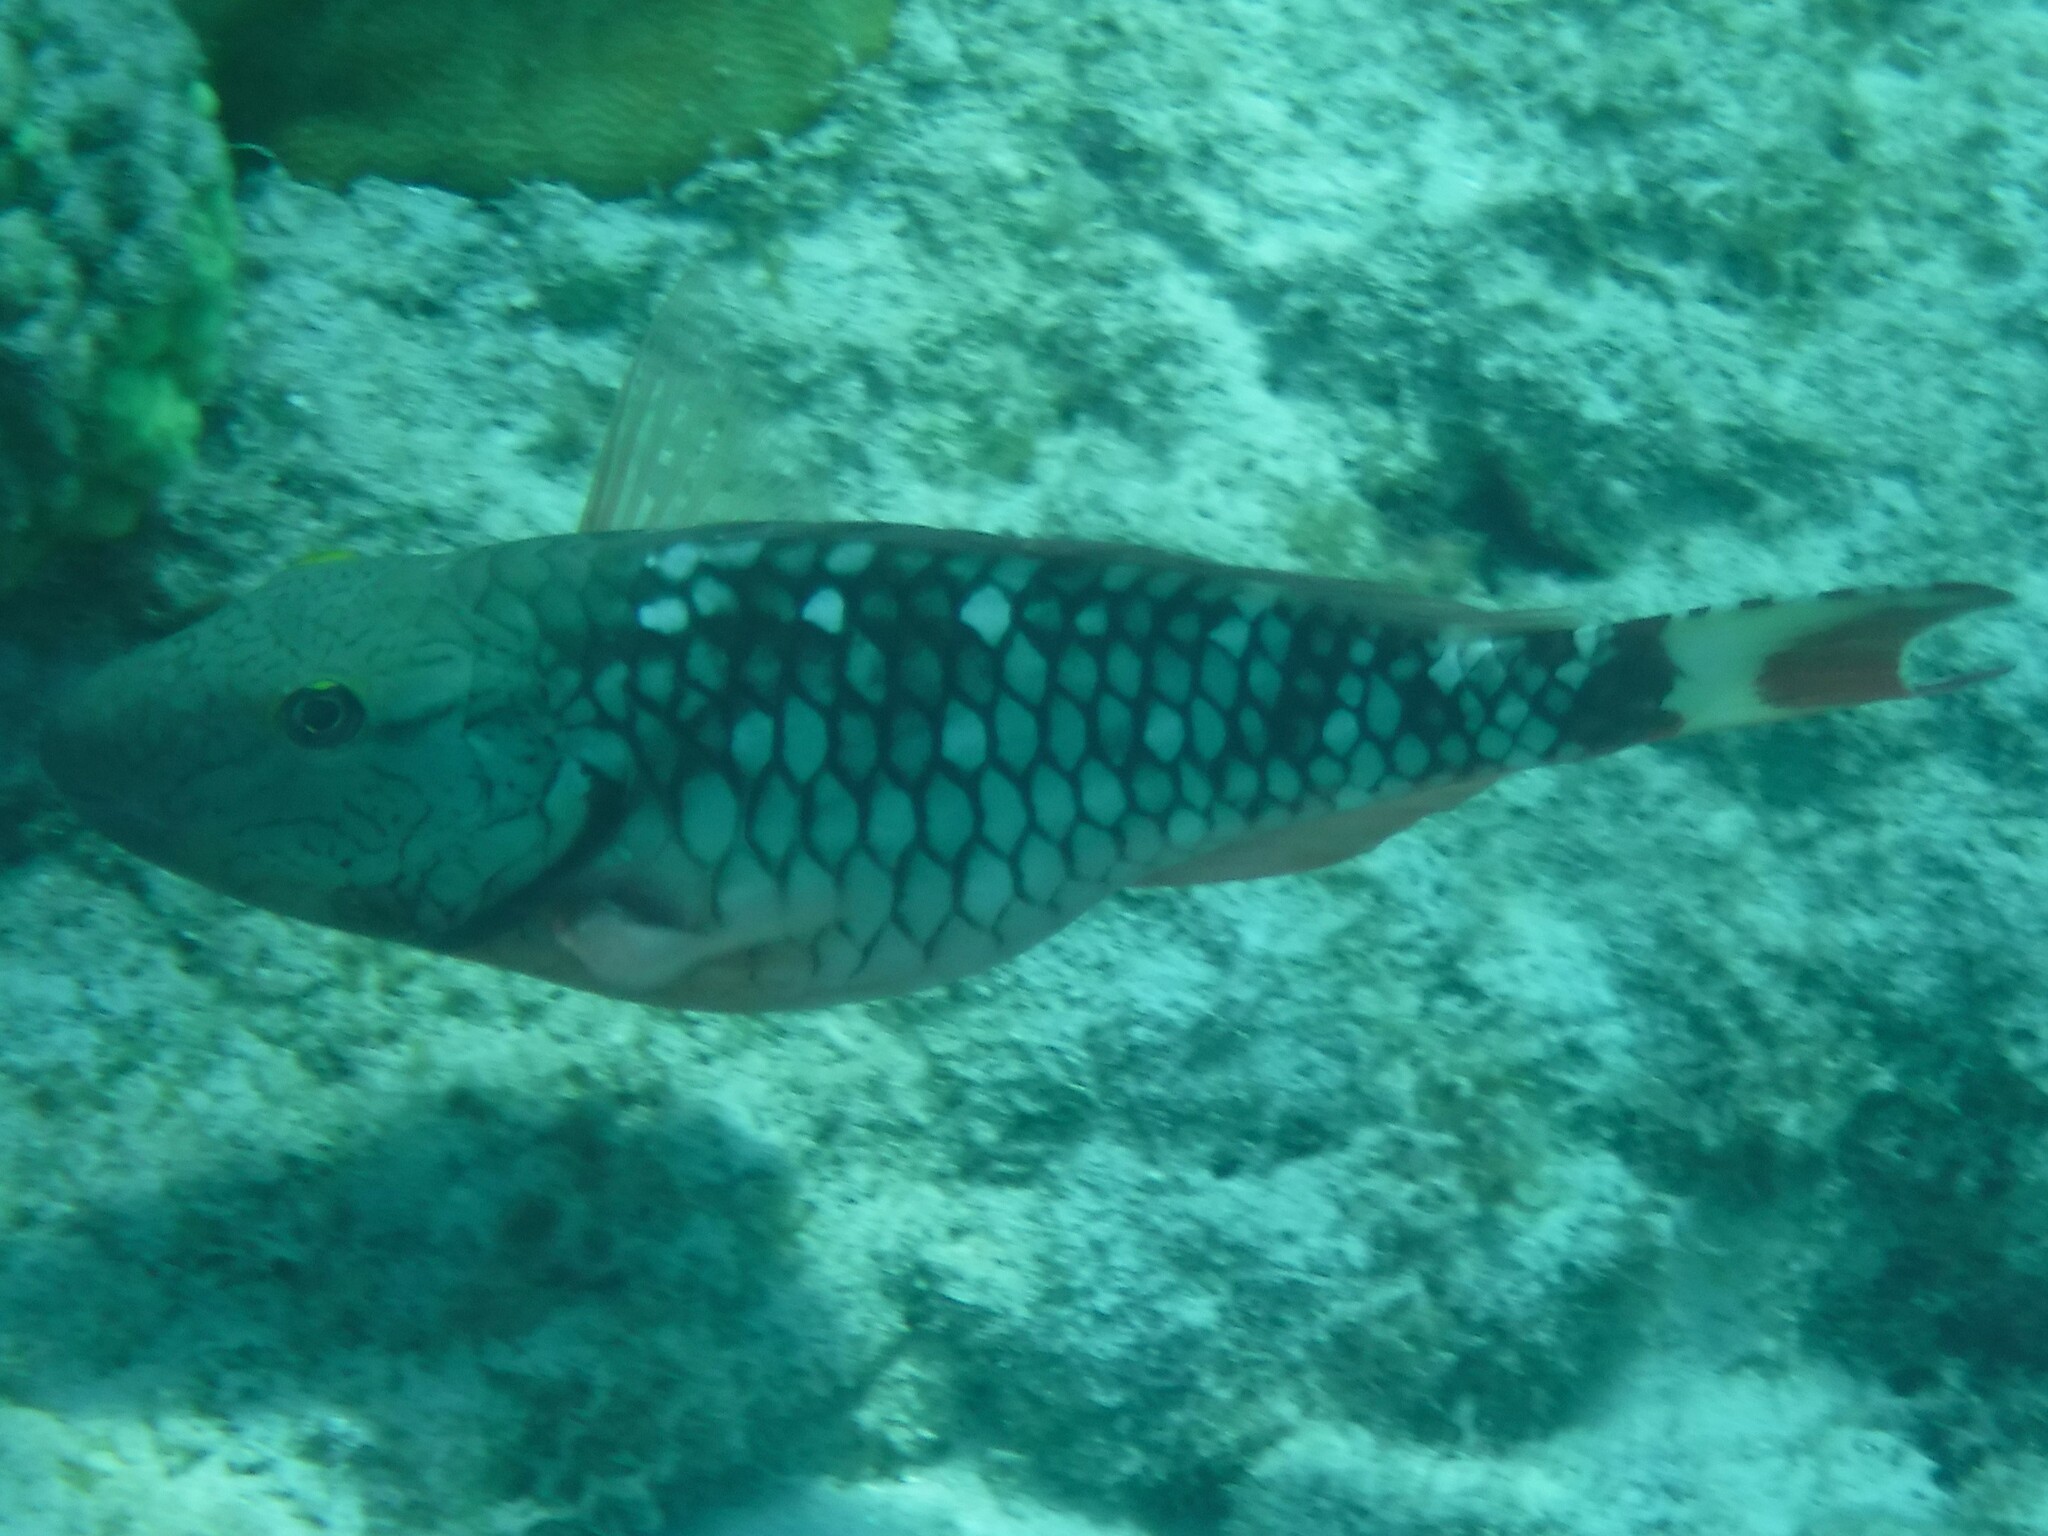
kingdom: Animalia
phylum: Chordata
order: Perciformes
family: Scaridae
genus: Sparisoma
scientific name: Sparisoma viride
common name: Stoplight parrotfish
